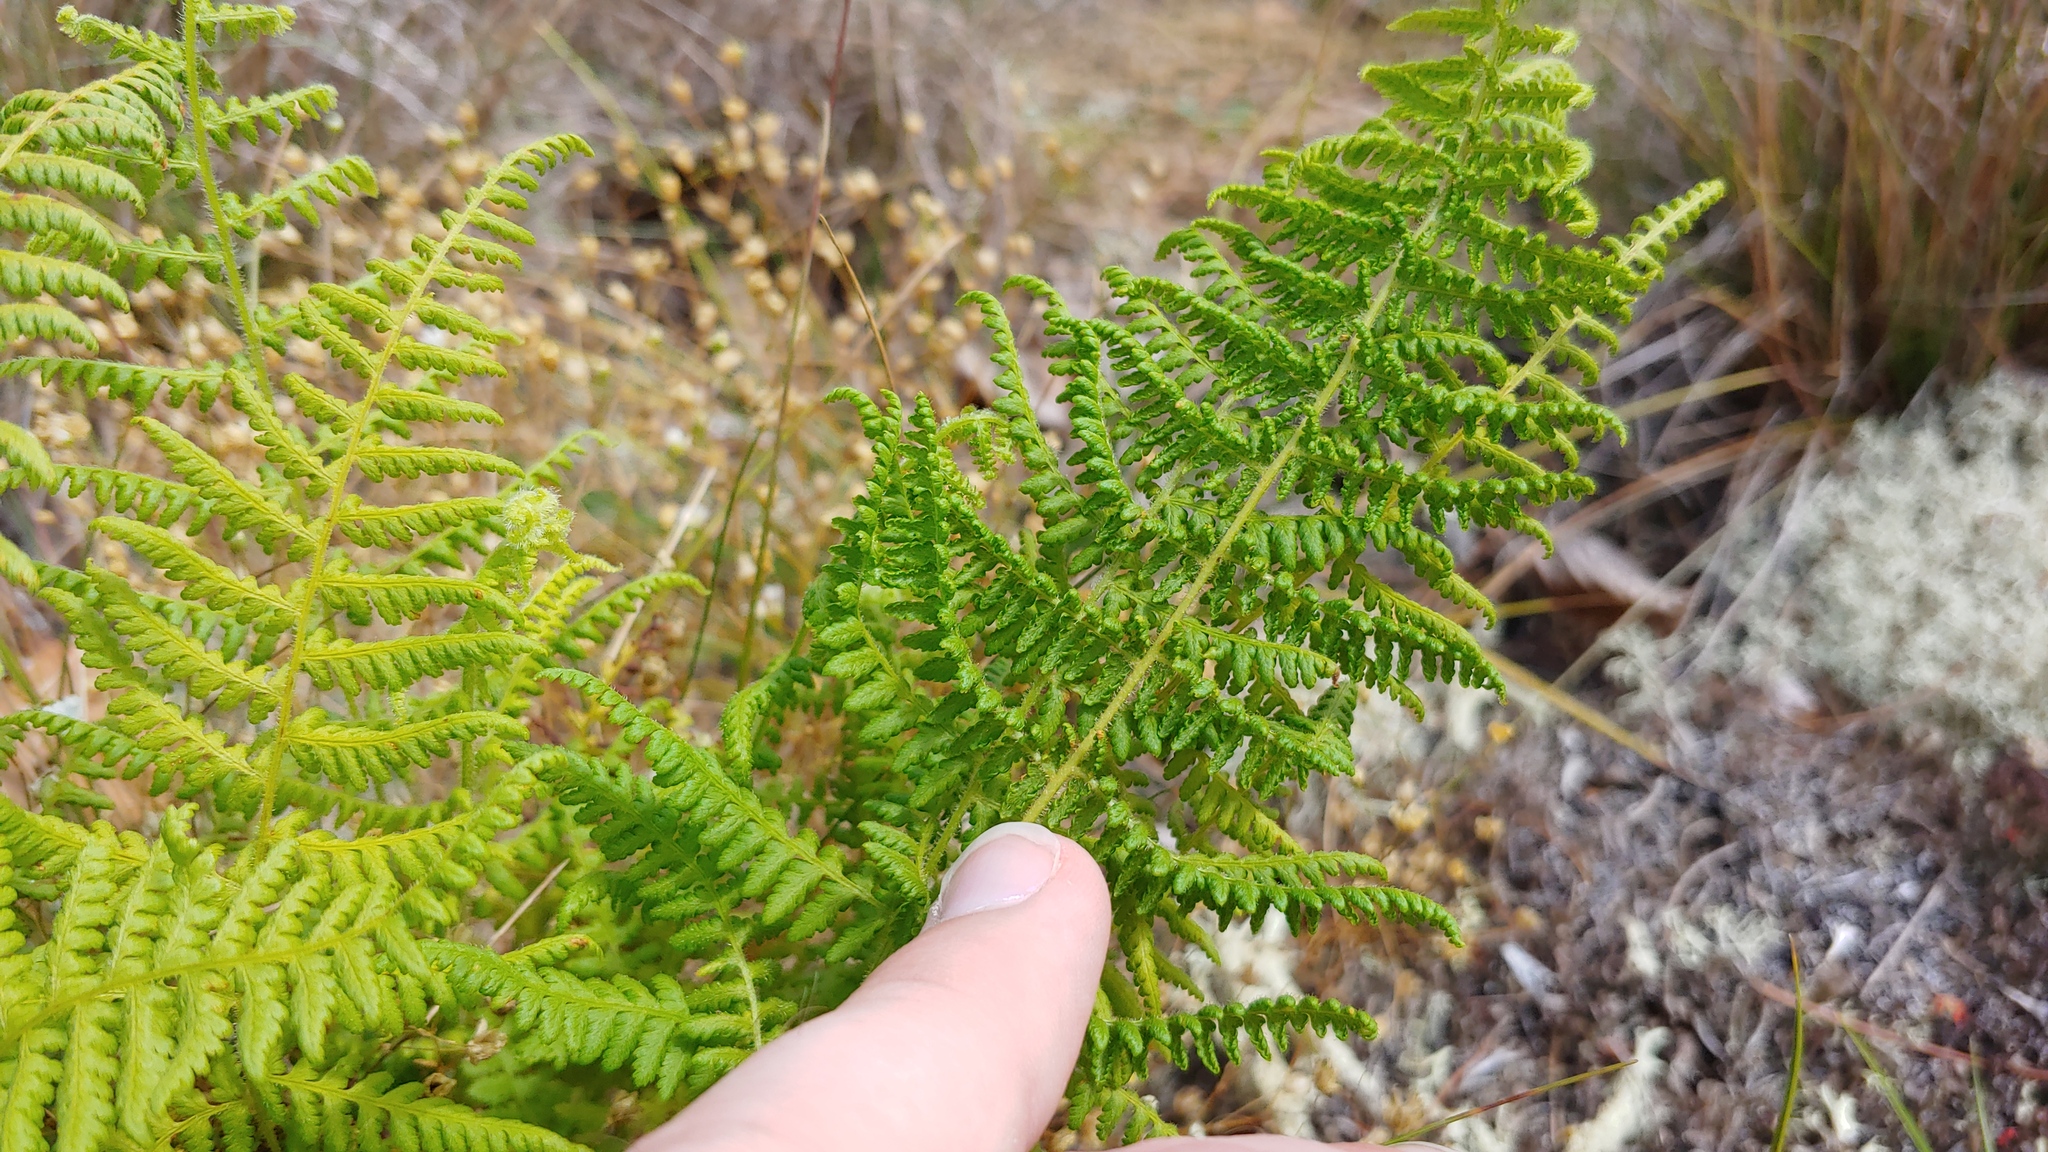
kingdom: Plantae
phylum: Tracheophyta
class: Polypodiopsida
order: Polypodiales
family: Dennstaedtiaceae
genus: Sitobolium
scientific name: Sitobolium punctilobum
